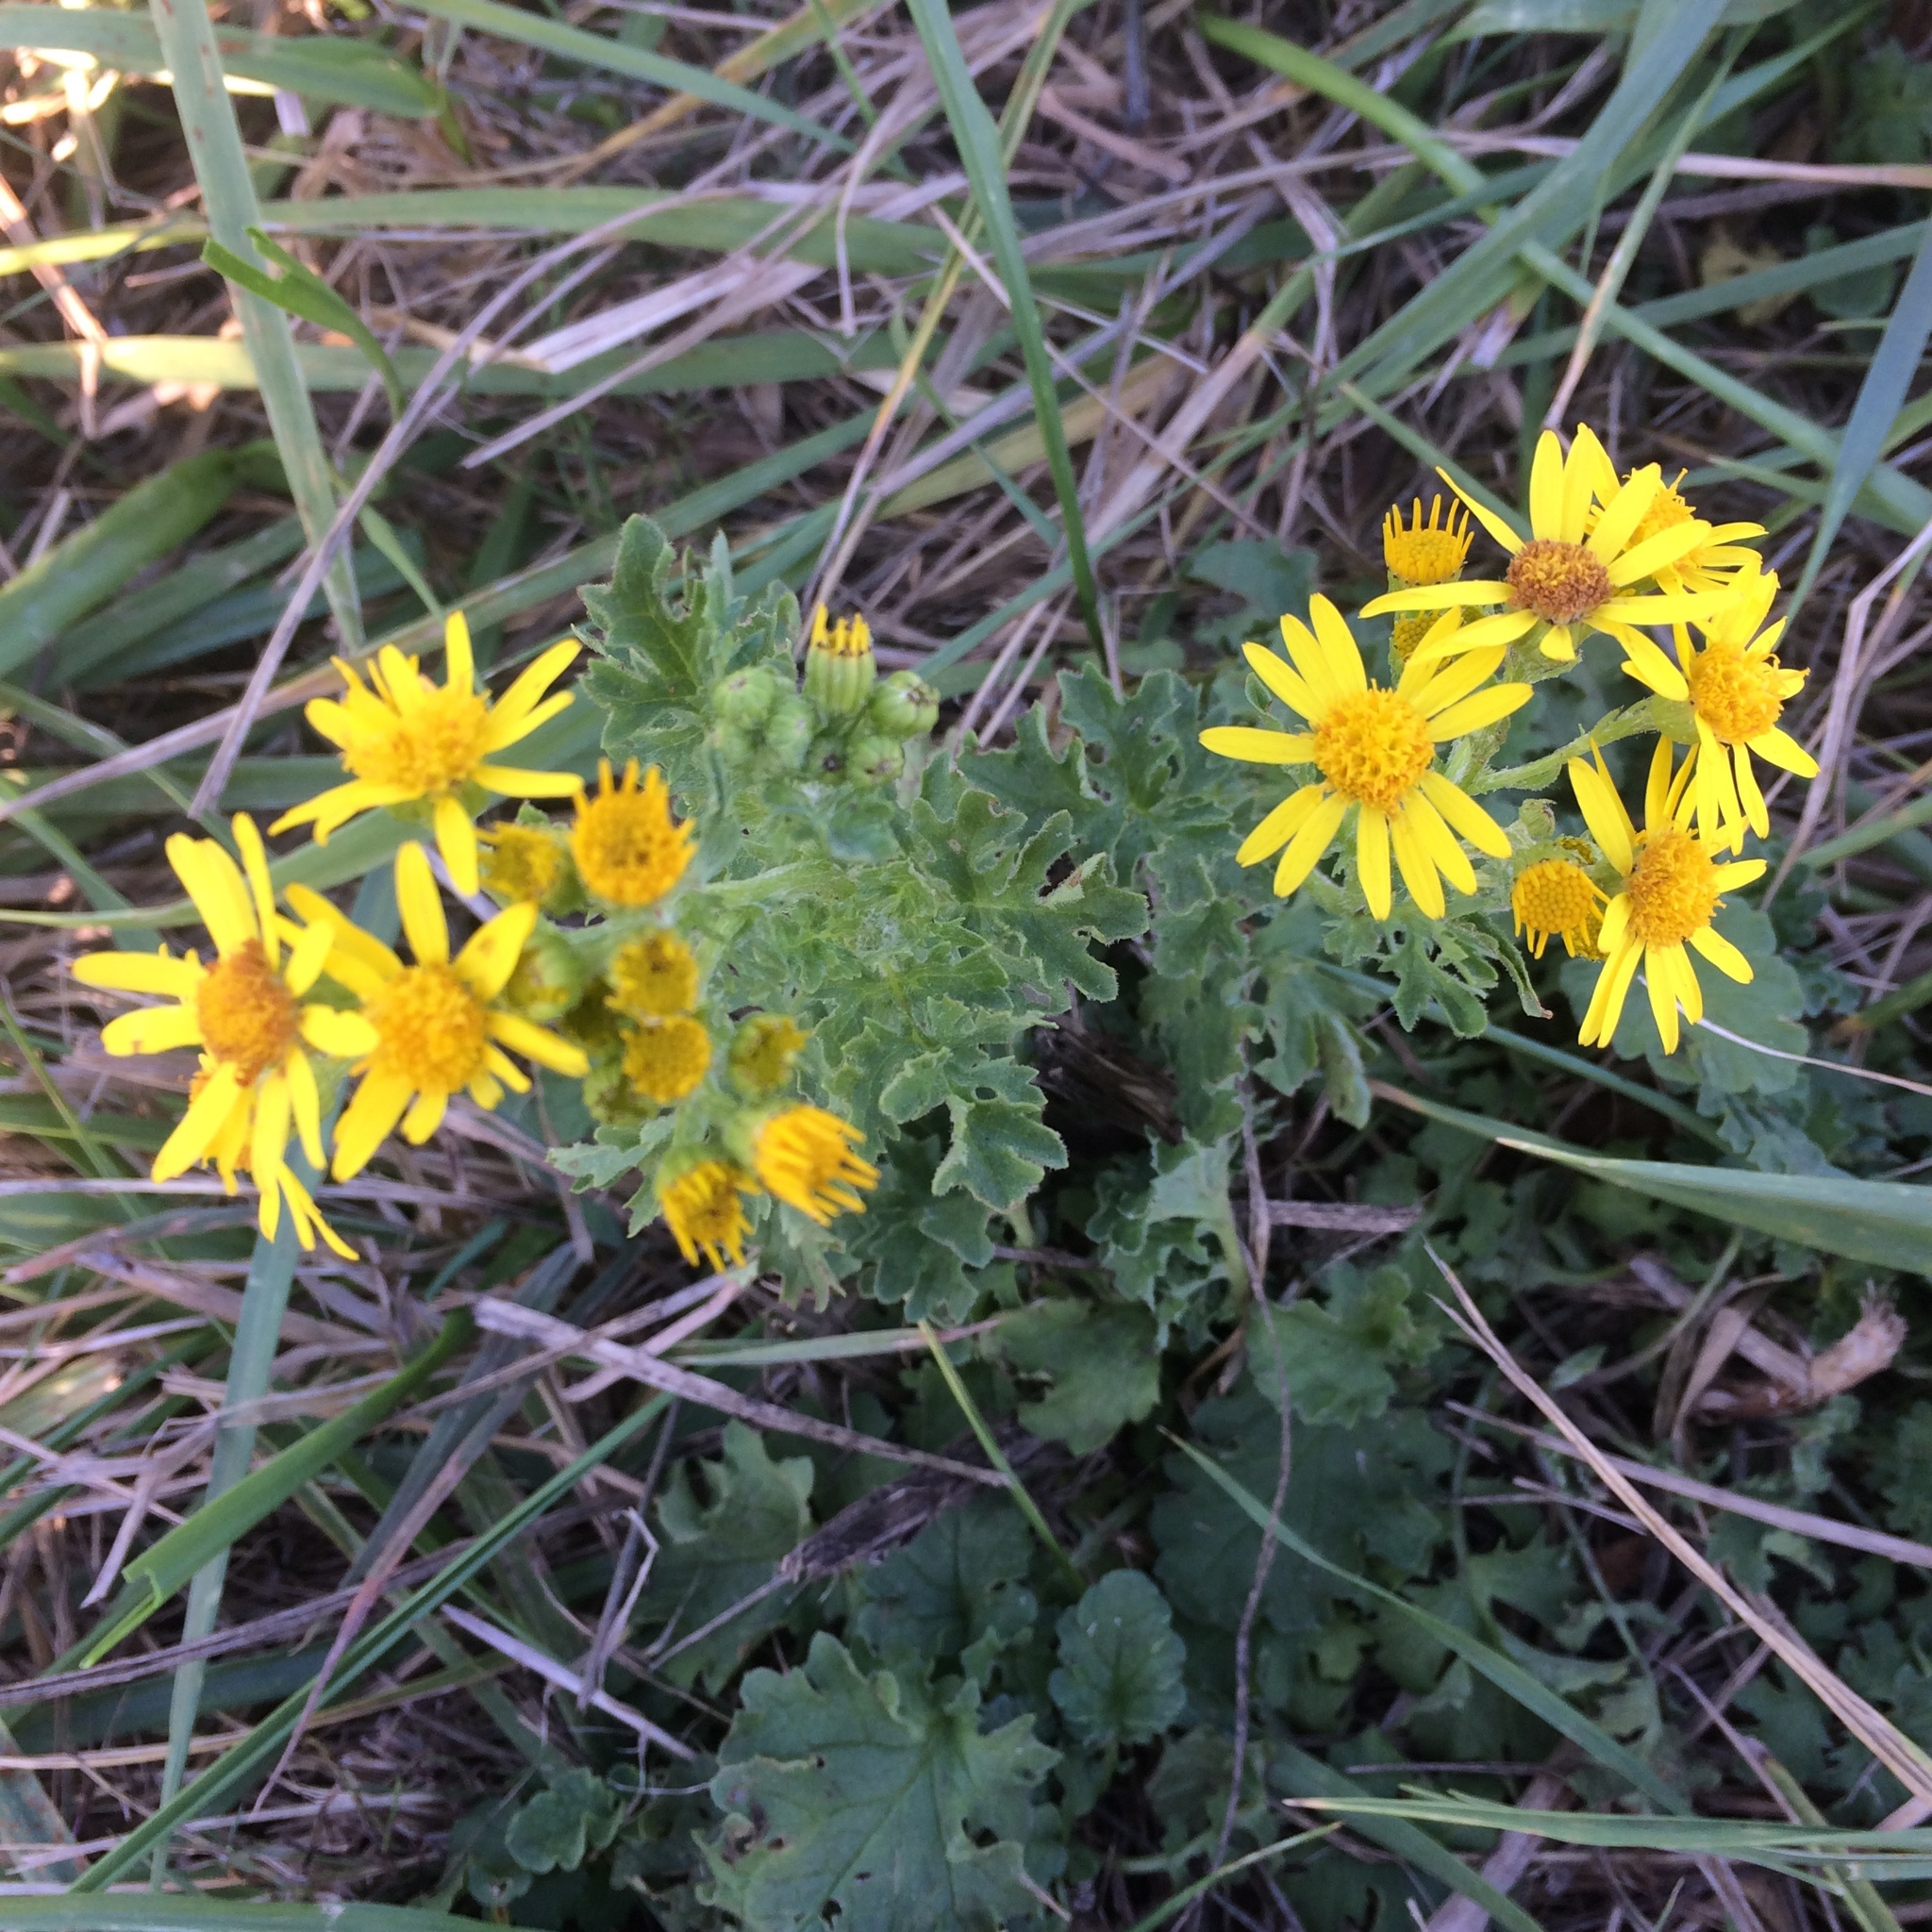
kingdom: Plantae
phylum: Tracheophyta
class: Magnoliopsida
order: Asterales
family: Asteraceae
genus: Jacobaea
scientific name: Jacobaea vulgaris
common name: Stinking willie
